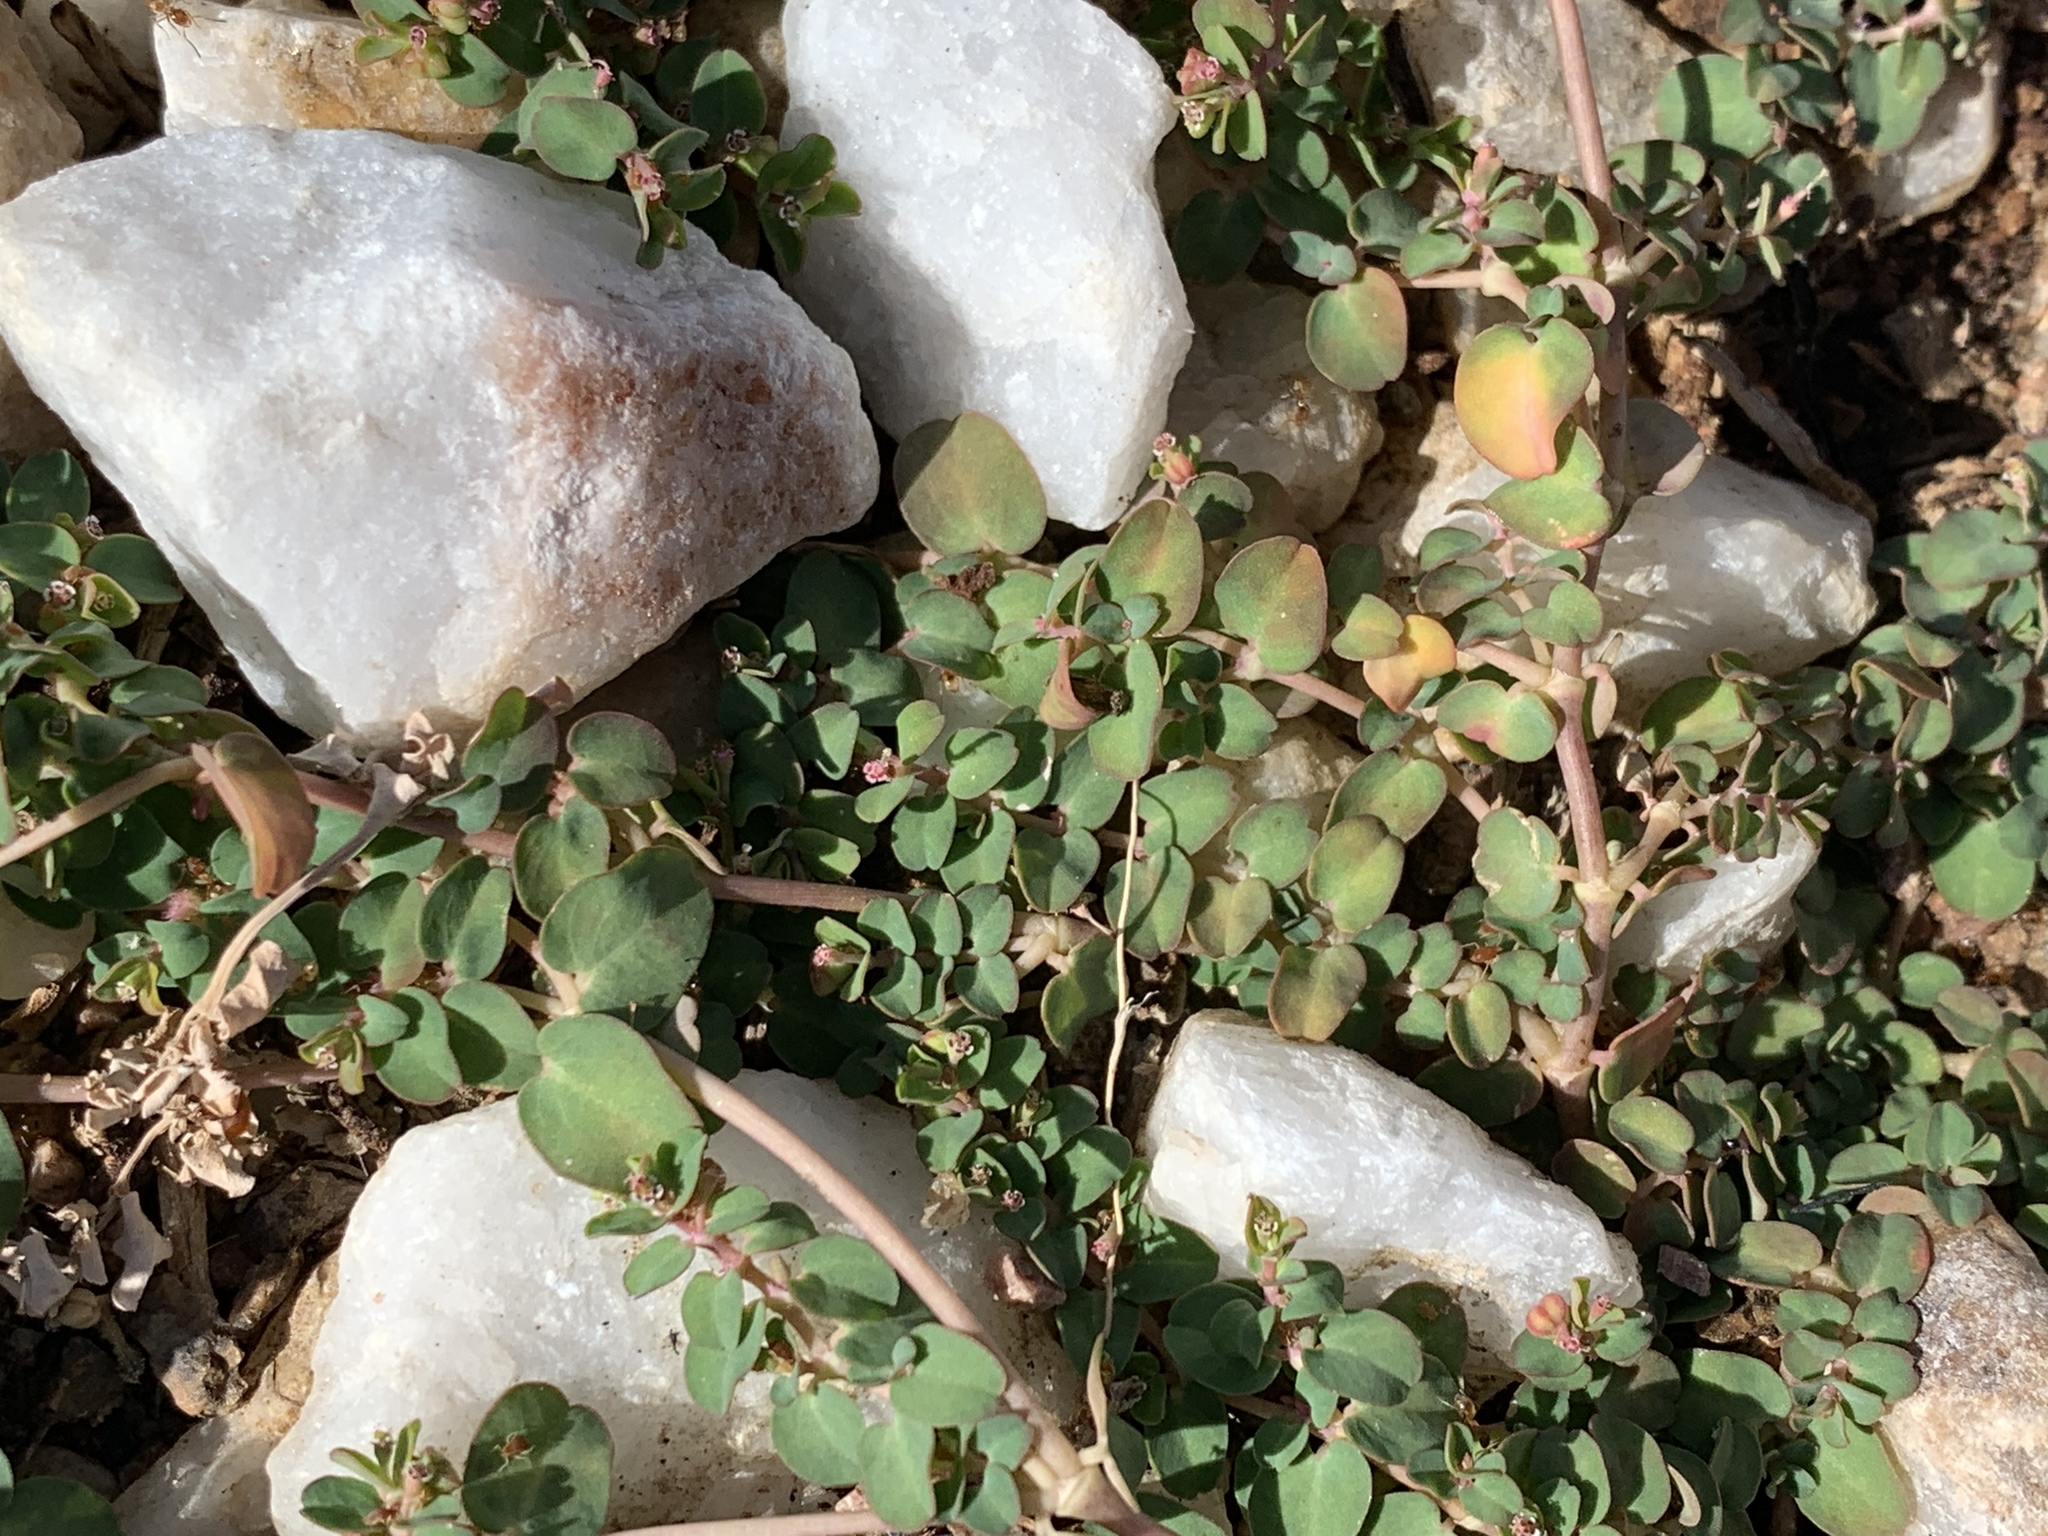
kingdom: Plantae
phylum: Tracheophyta
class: Magnoliopsida
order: Malpighiales
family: Euphorbiaceae
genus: Euphorbia
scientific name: Euphorbia serpens
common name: Matted sandmat
